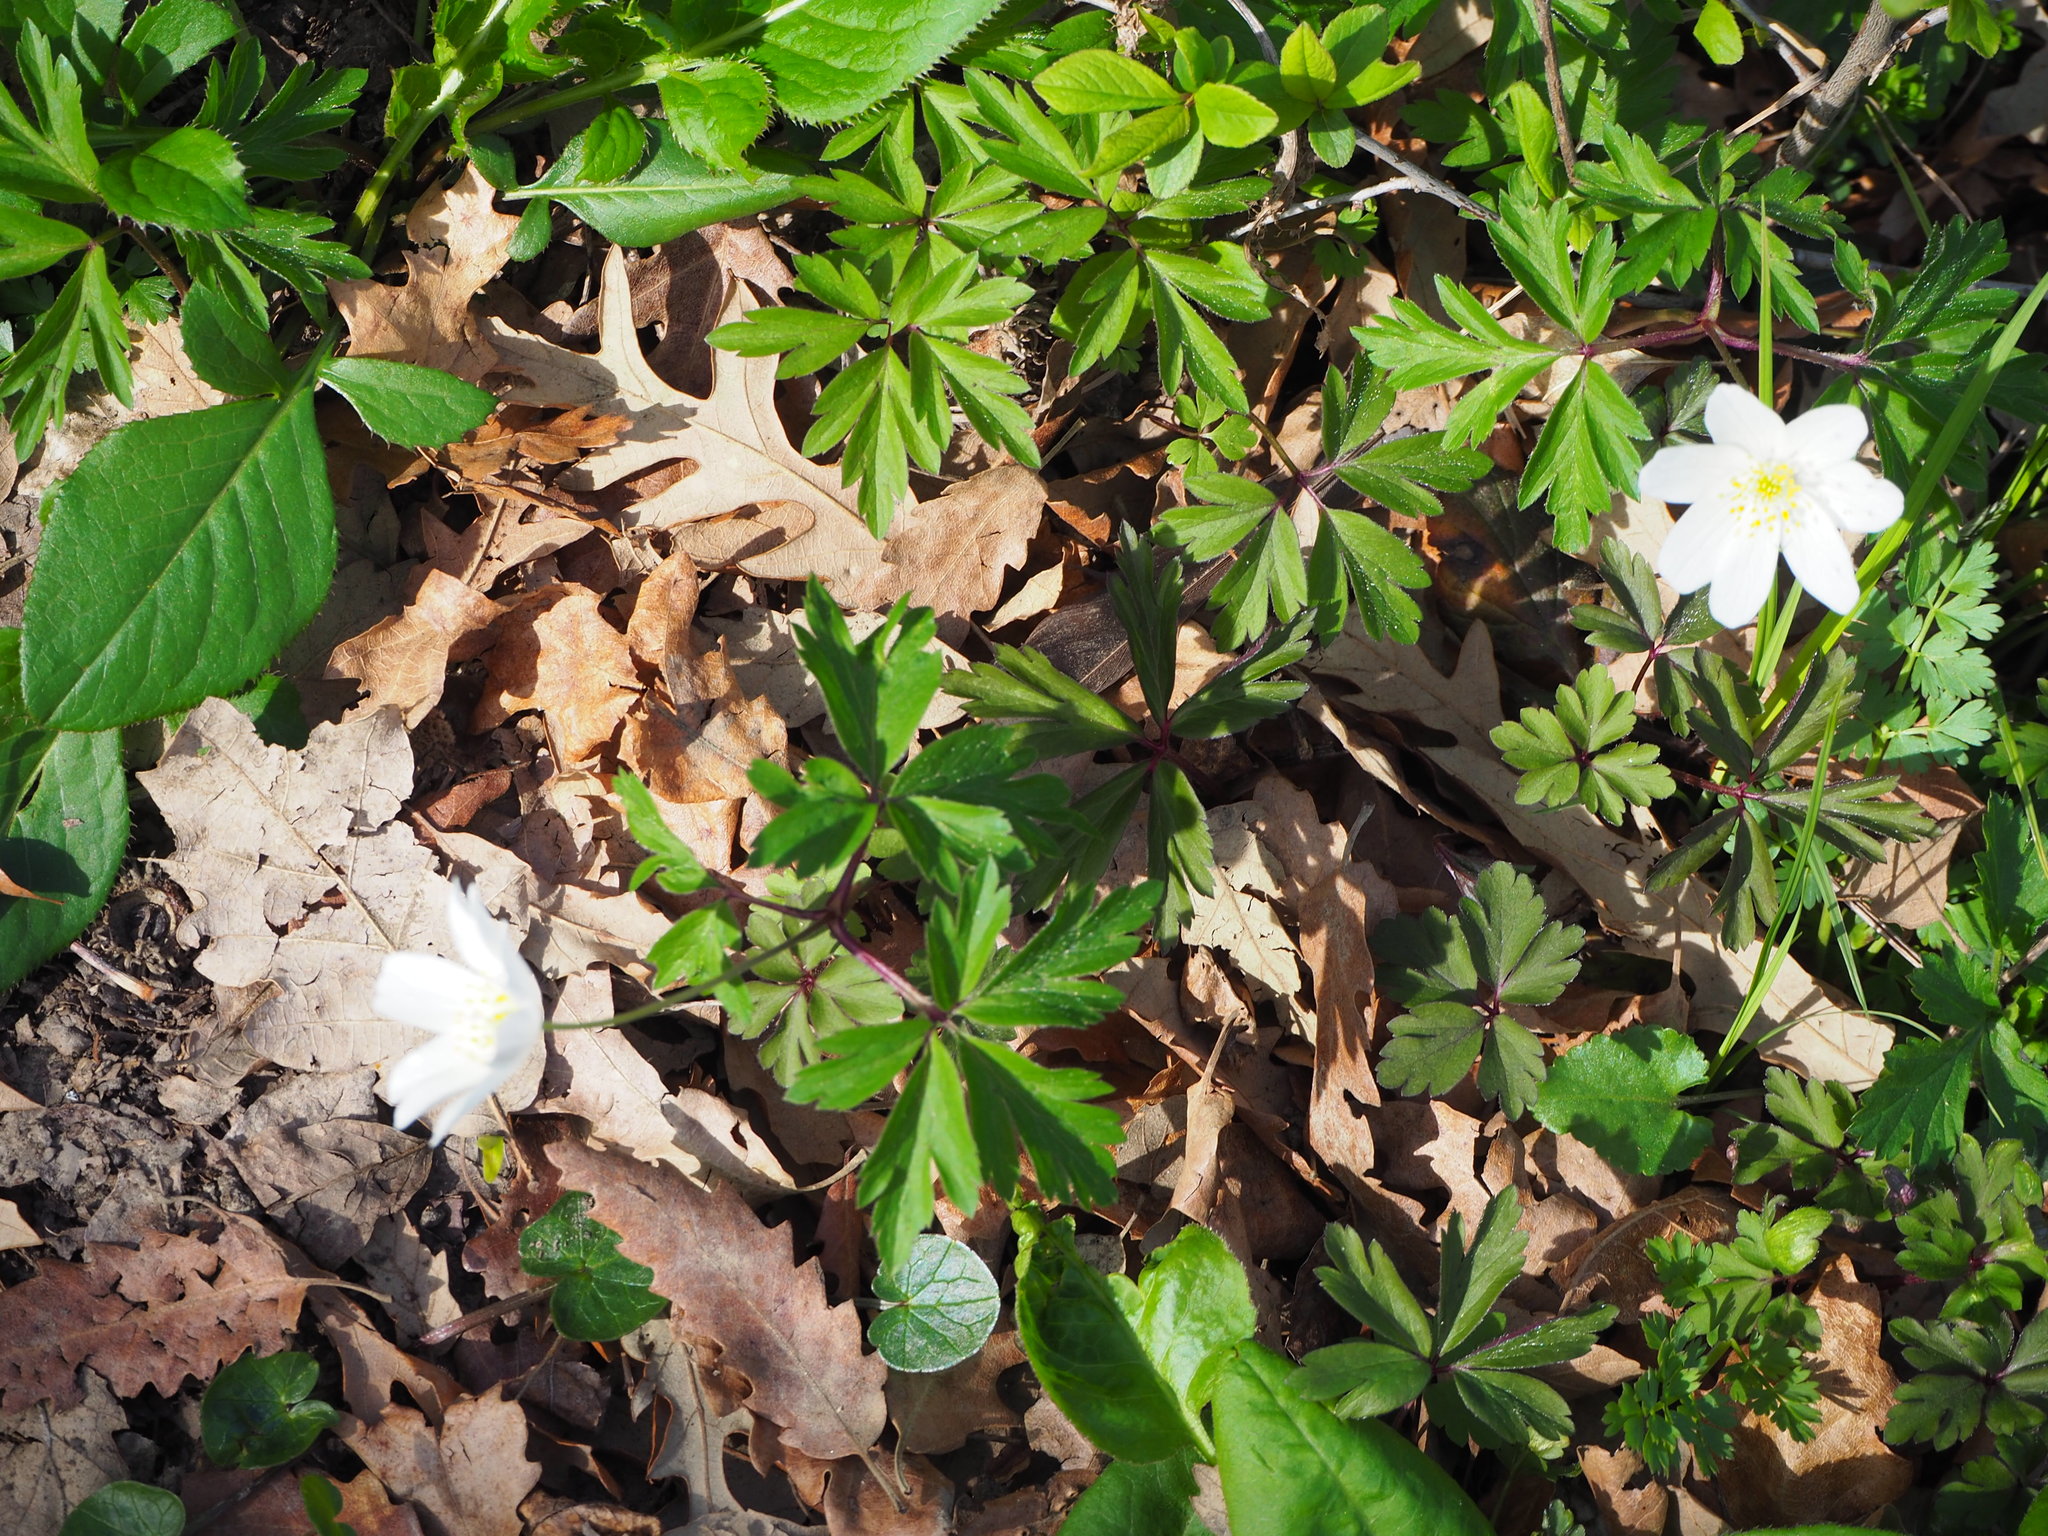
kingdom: Plantae
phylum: Tracheophyta
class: Magnoliopsida
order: Ranunculales
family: Ranunculaceae
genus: Anemone
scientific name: Anemone nemorosa
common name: Wood anemone
